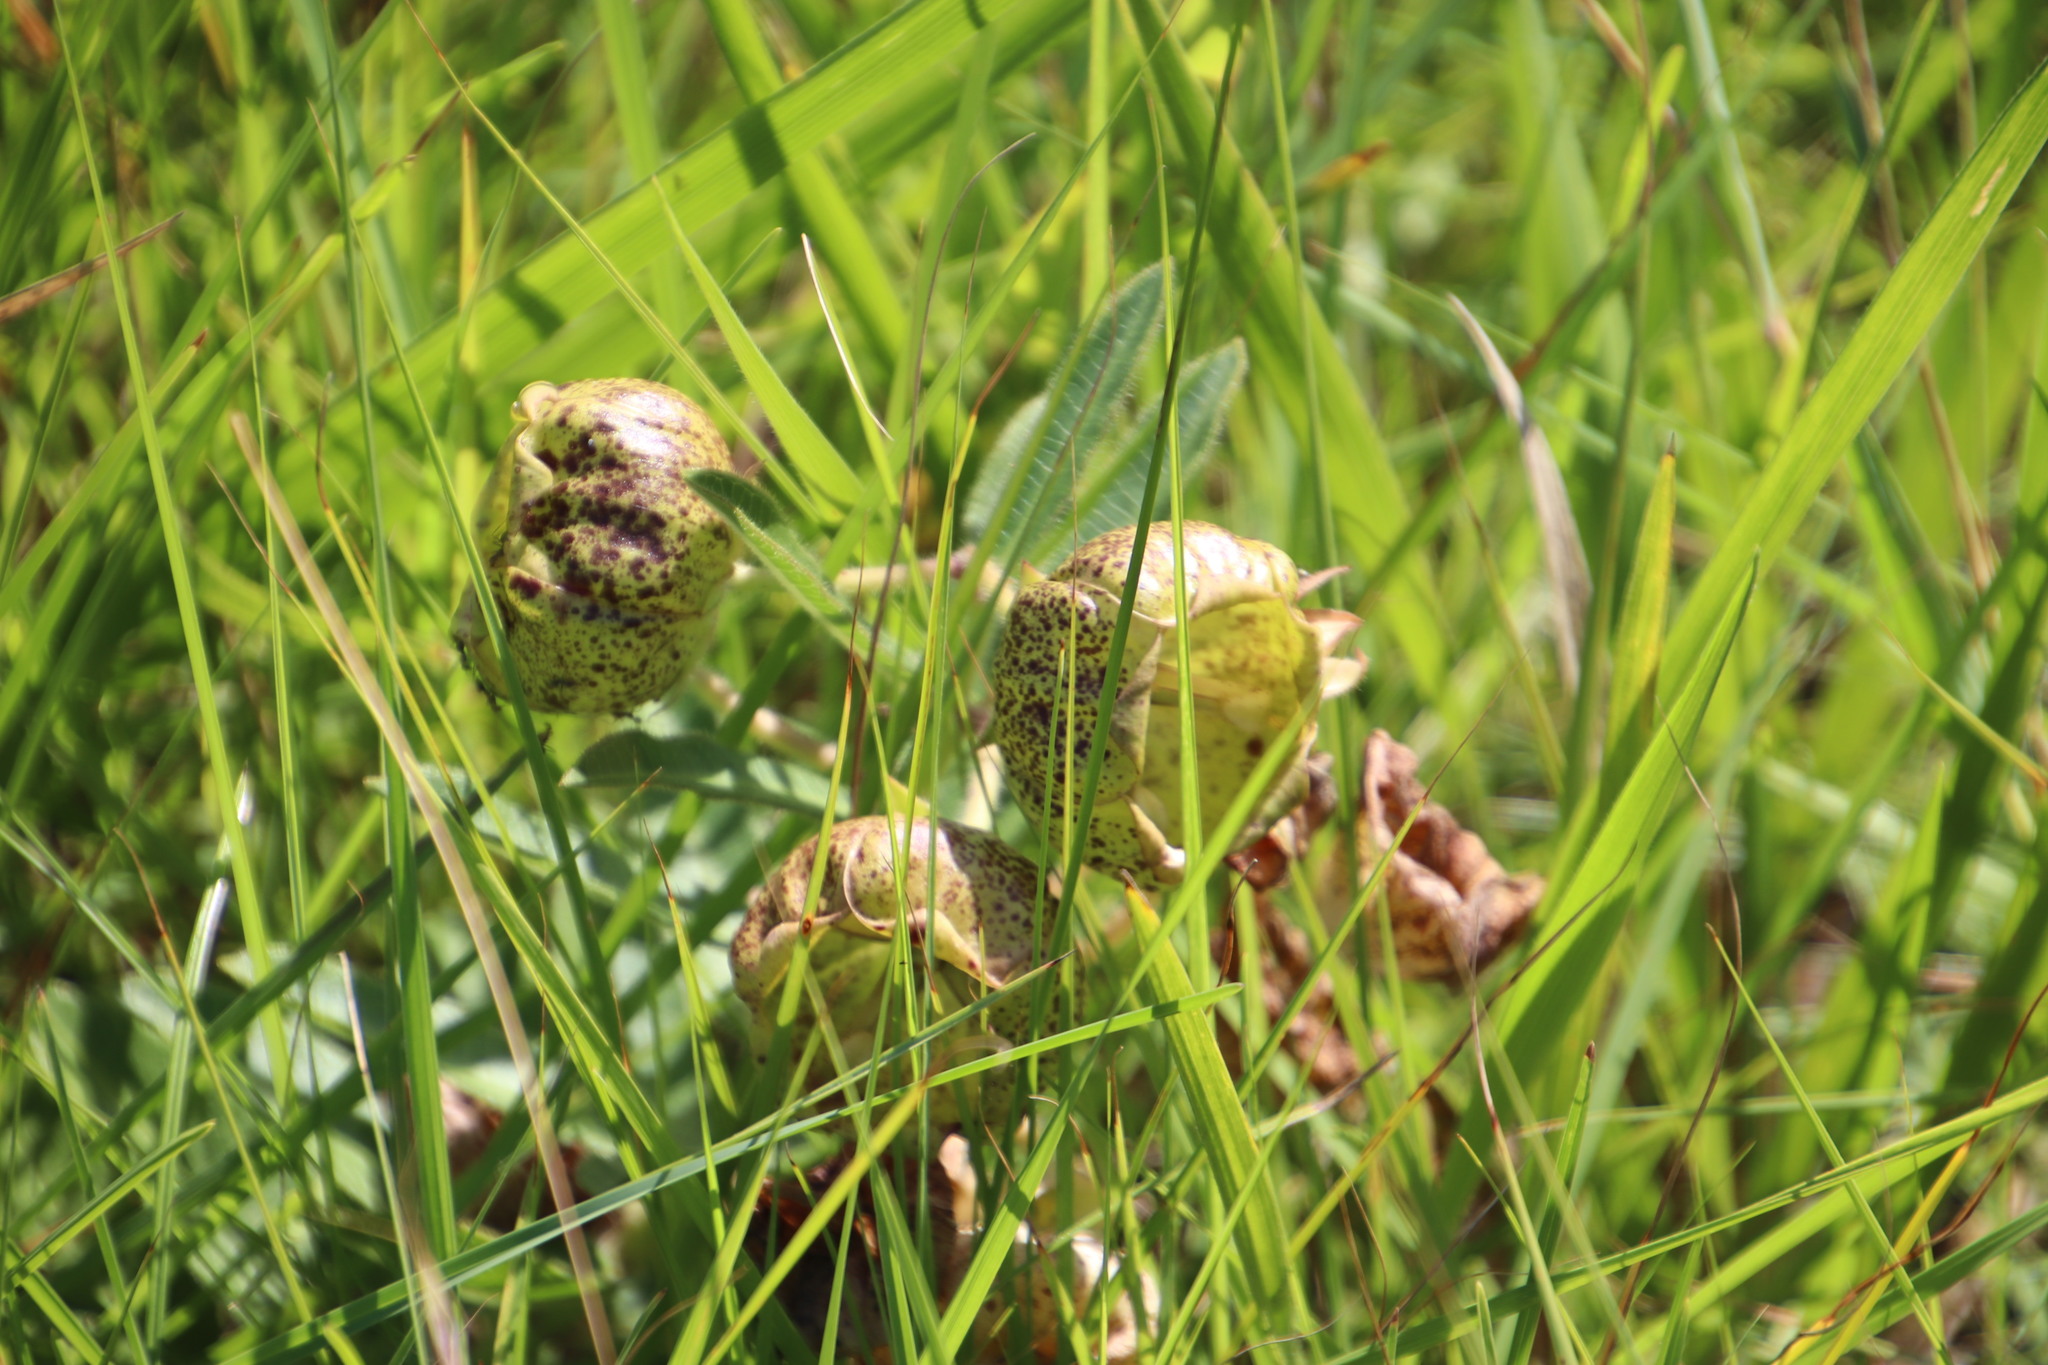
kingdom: Plantae
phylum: Tracheophyta
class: Magnoliopsida
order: Gentianales
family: Apocynaceae
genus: Pachycarpus
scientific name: Pachycarpus grandiflorus
